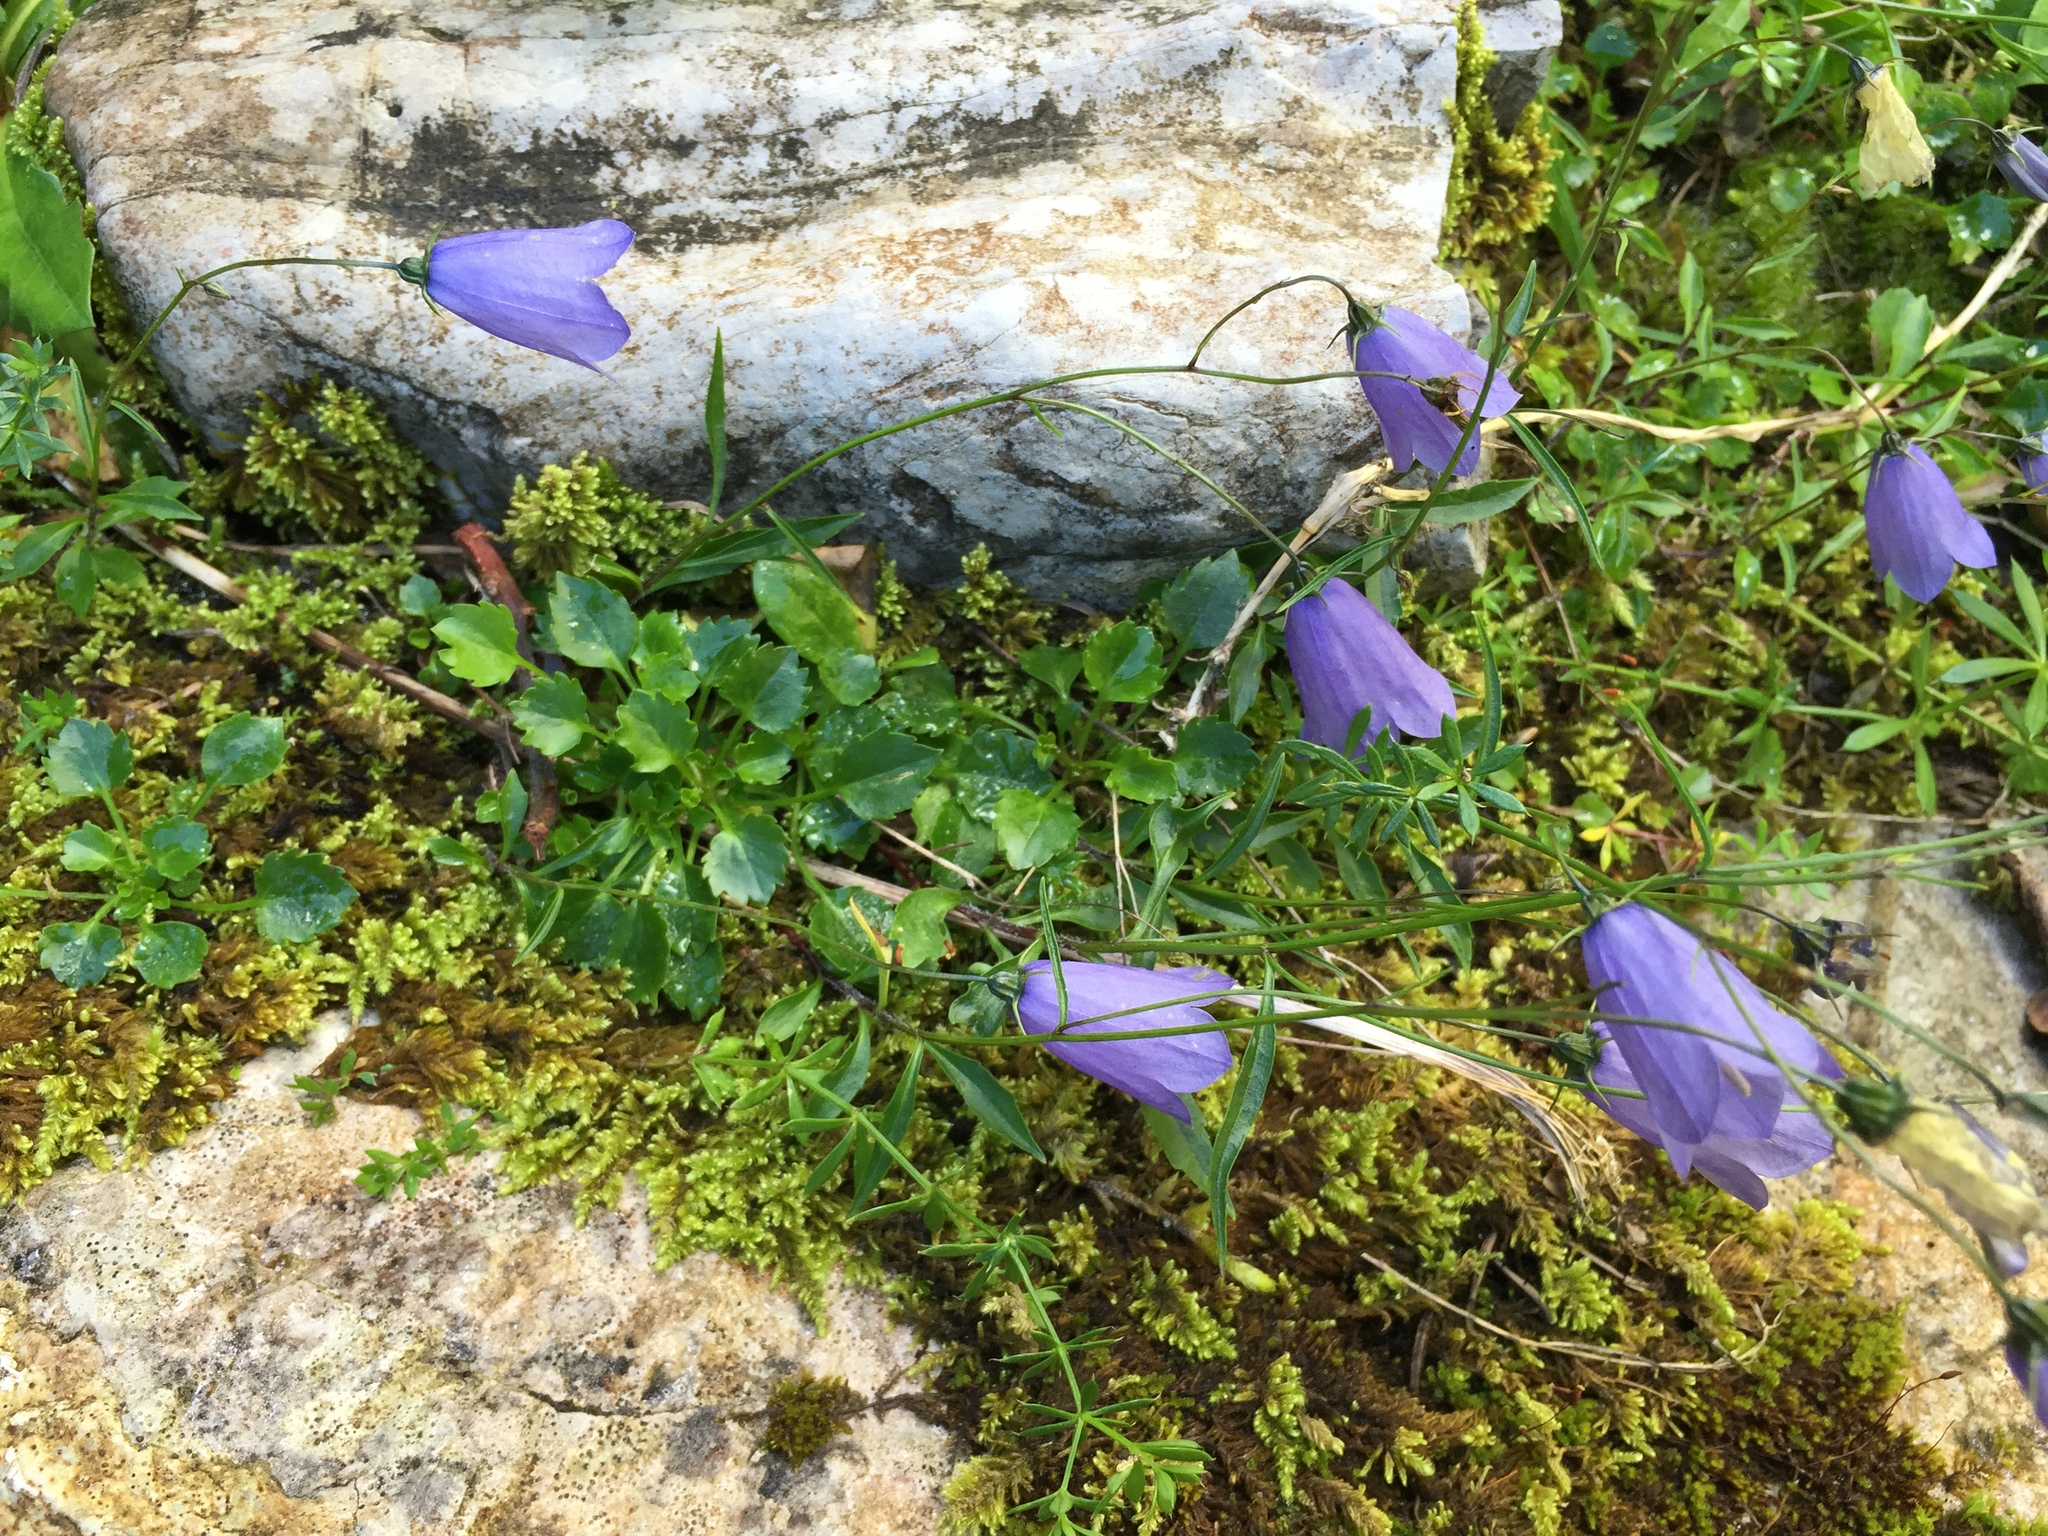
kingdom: Plantae
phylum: Tracheophyta
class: Magnoliopsida
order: Asterales
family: Campanulaceae
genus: Campanula
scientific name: Campanula rotundifolia
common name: Harebell
